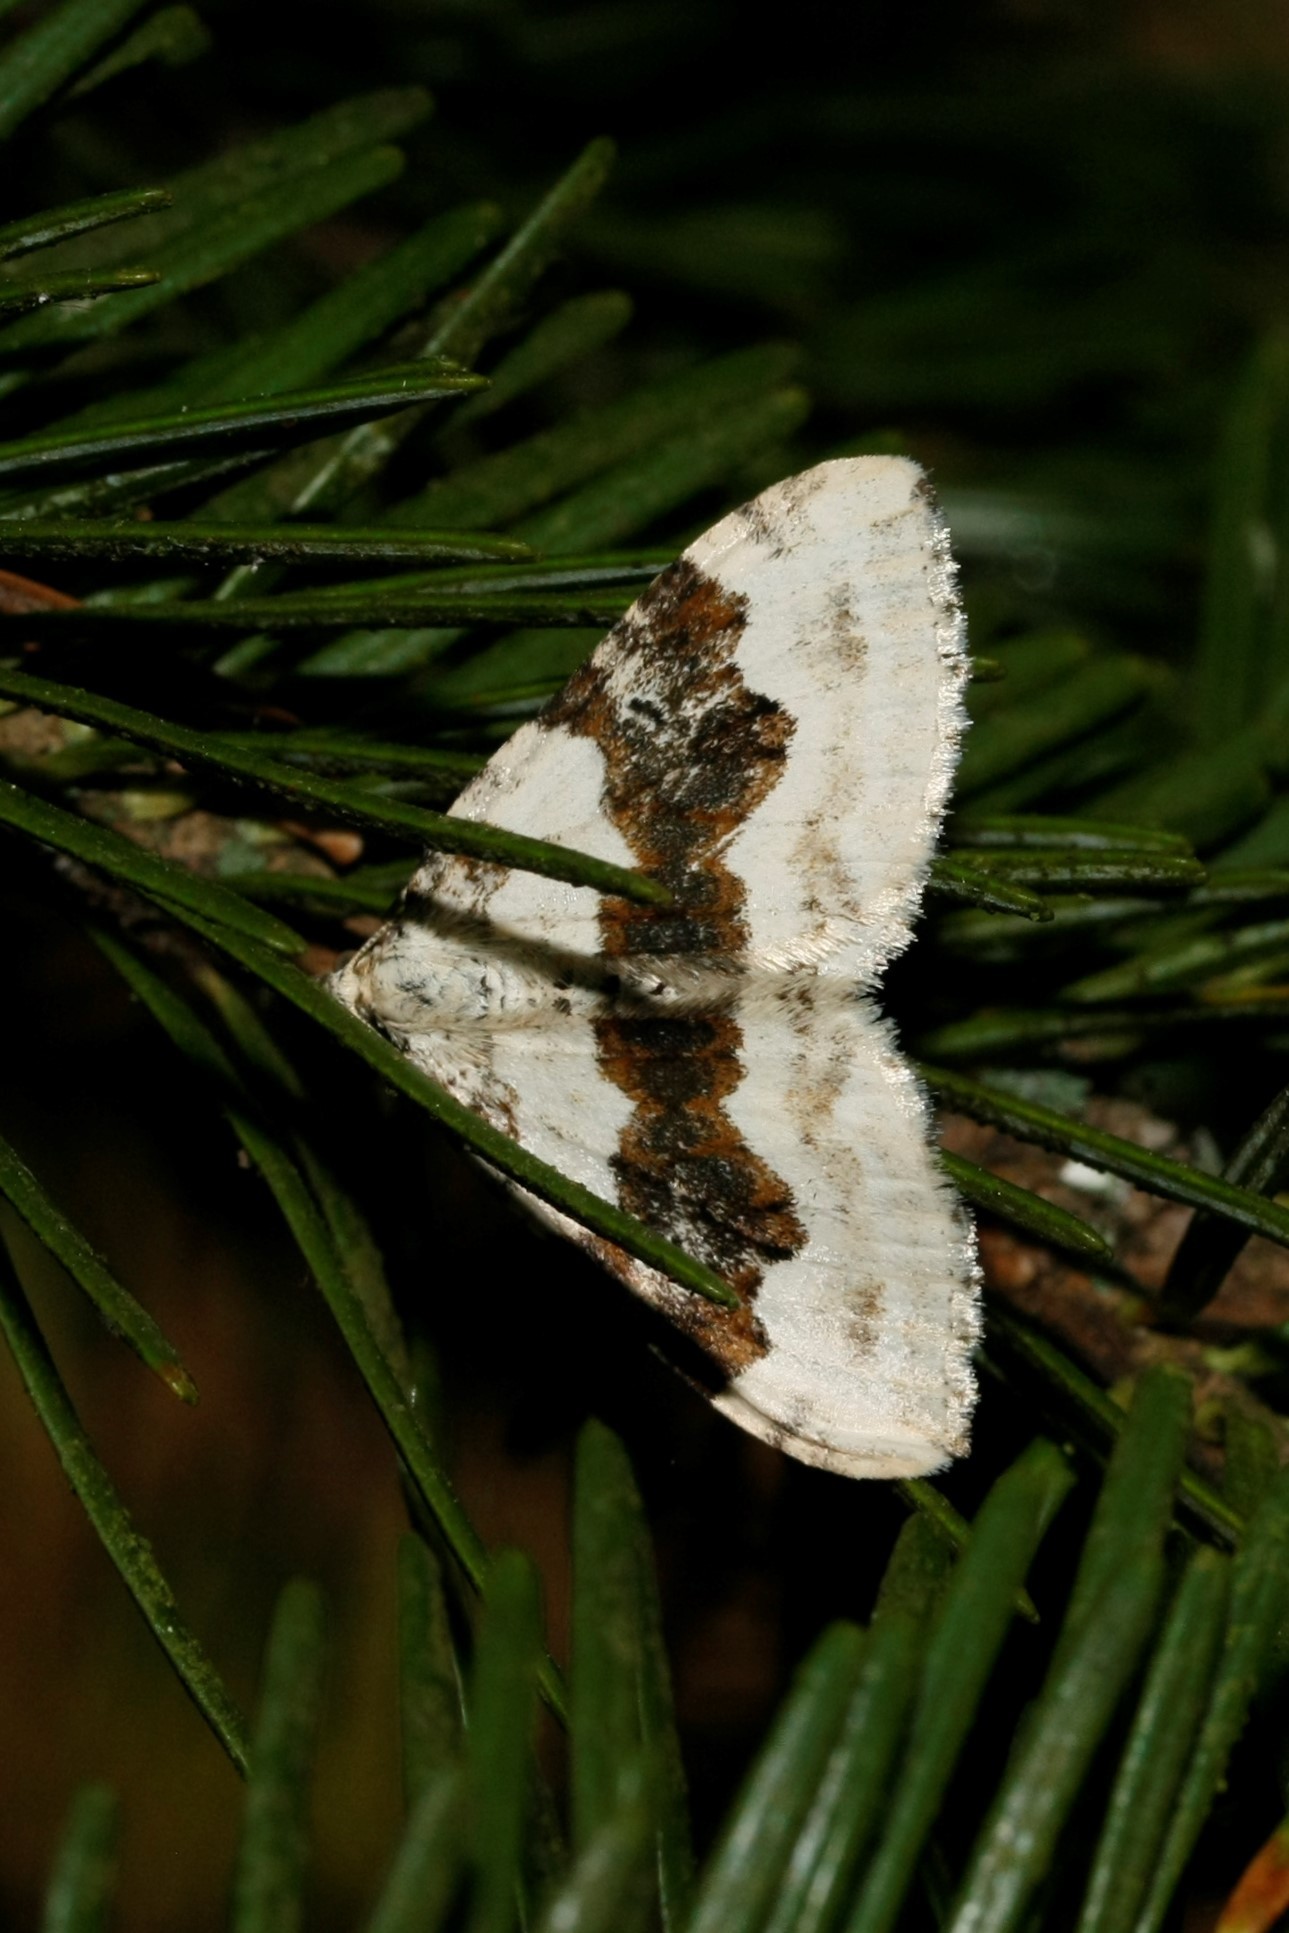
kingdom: Animalia
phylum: Arthropoda
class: Insecta
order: Lepidoptera
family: Geometridae
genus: Xanthorhoe
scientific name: Xanthorhoe montanata
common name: Silver-ground carpet
